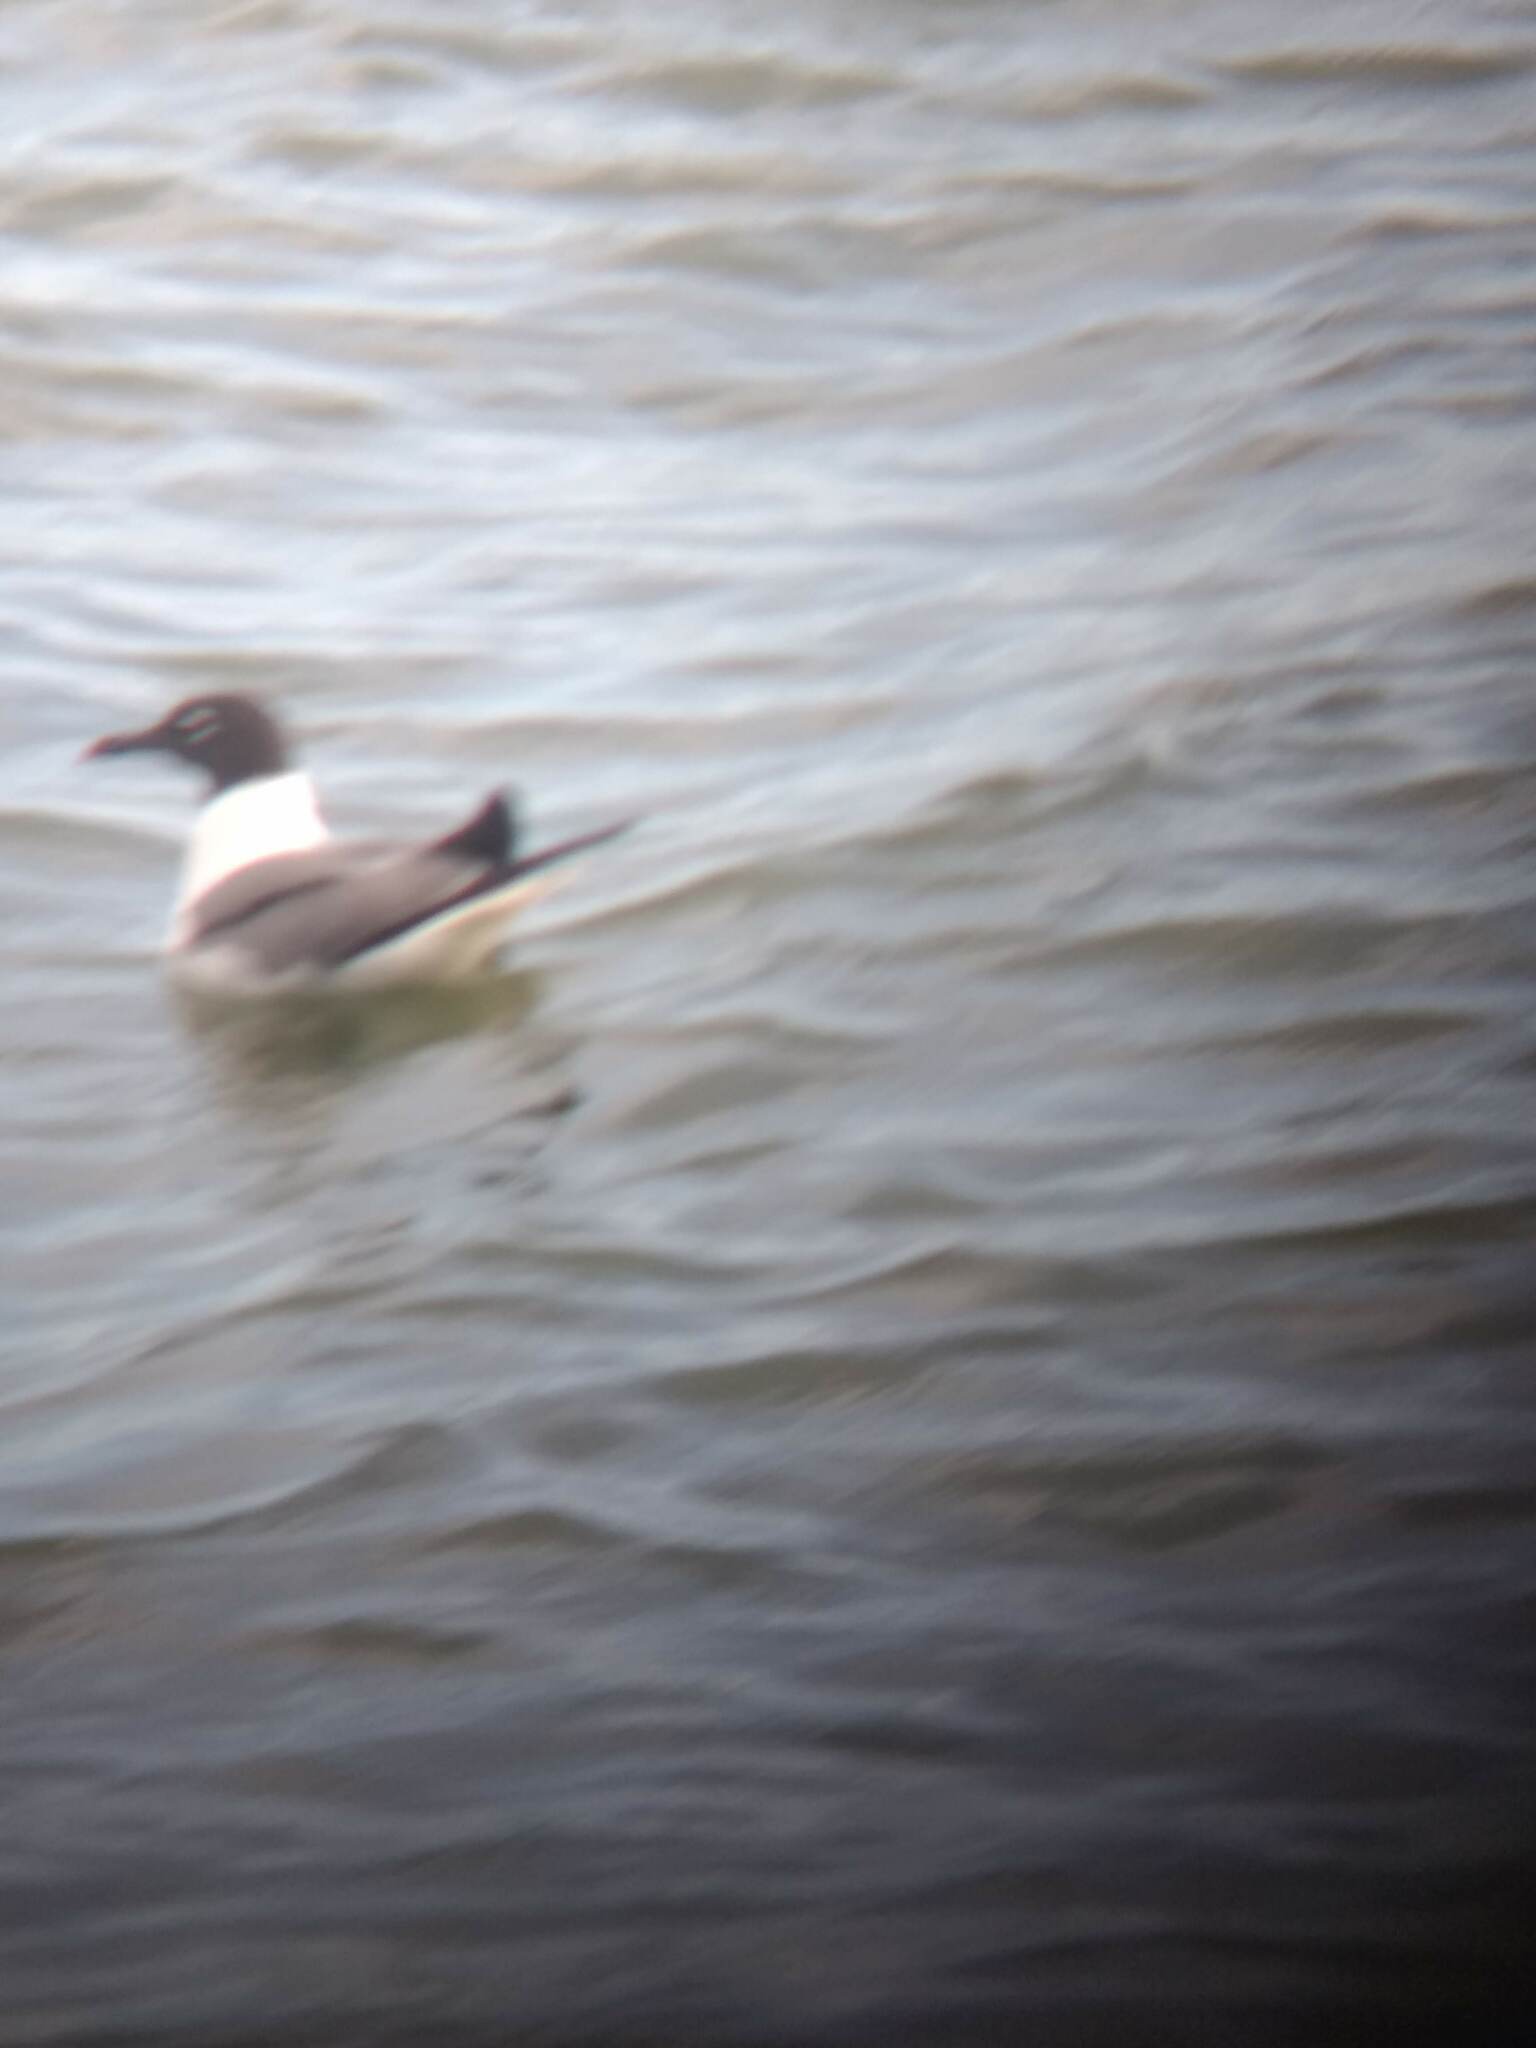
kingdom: Animalia
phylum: Chordata
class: Aves
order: Charadriiformes
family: Laridae
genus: Leucophaeus
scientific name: Leucophaeus atricilla
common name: Laughing gull
